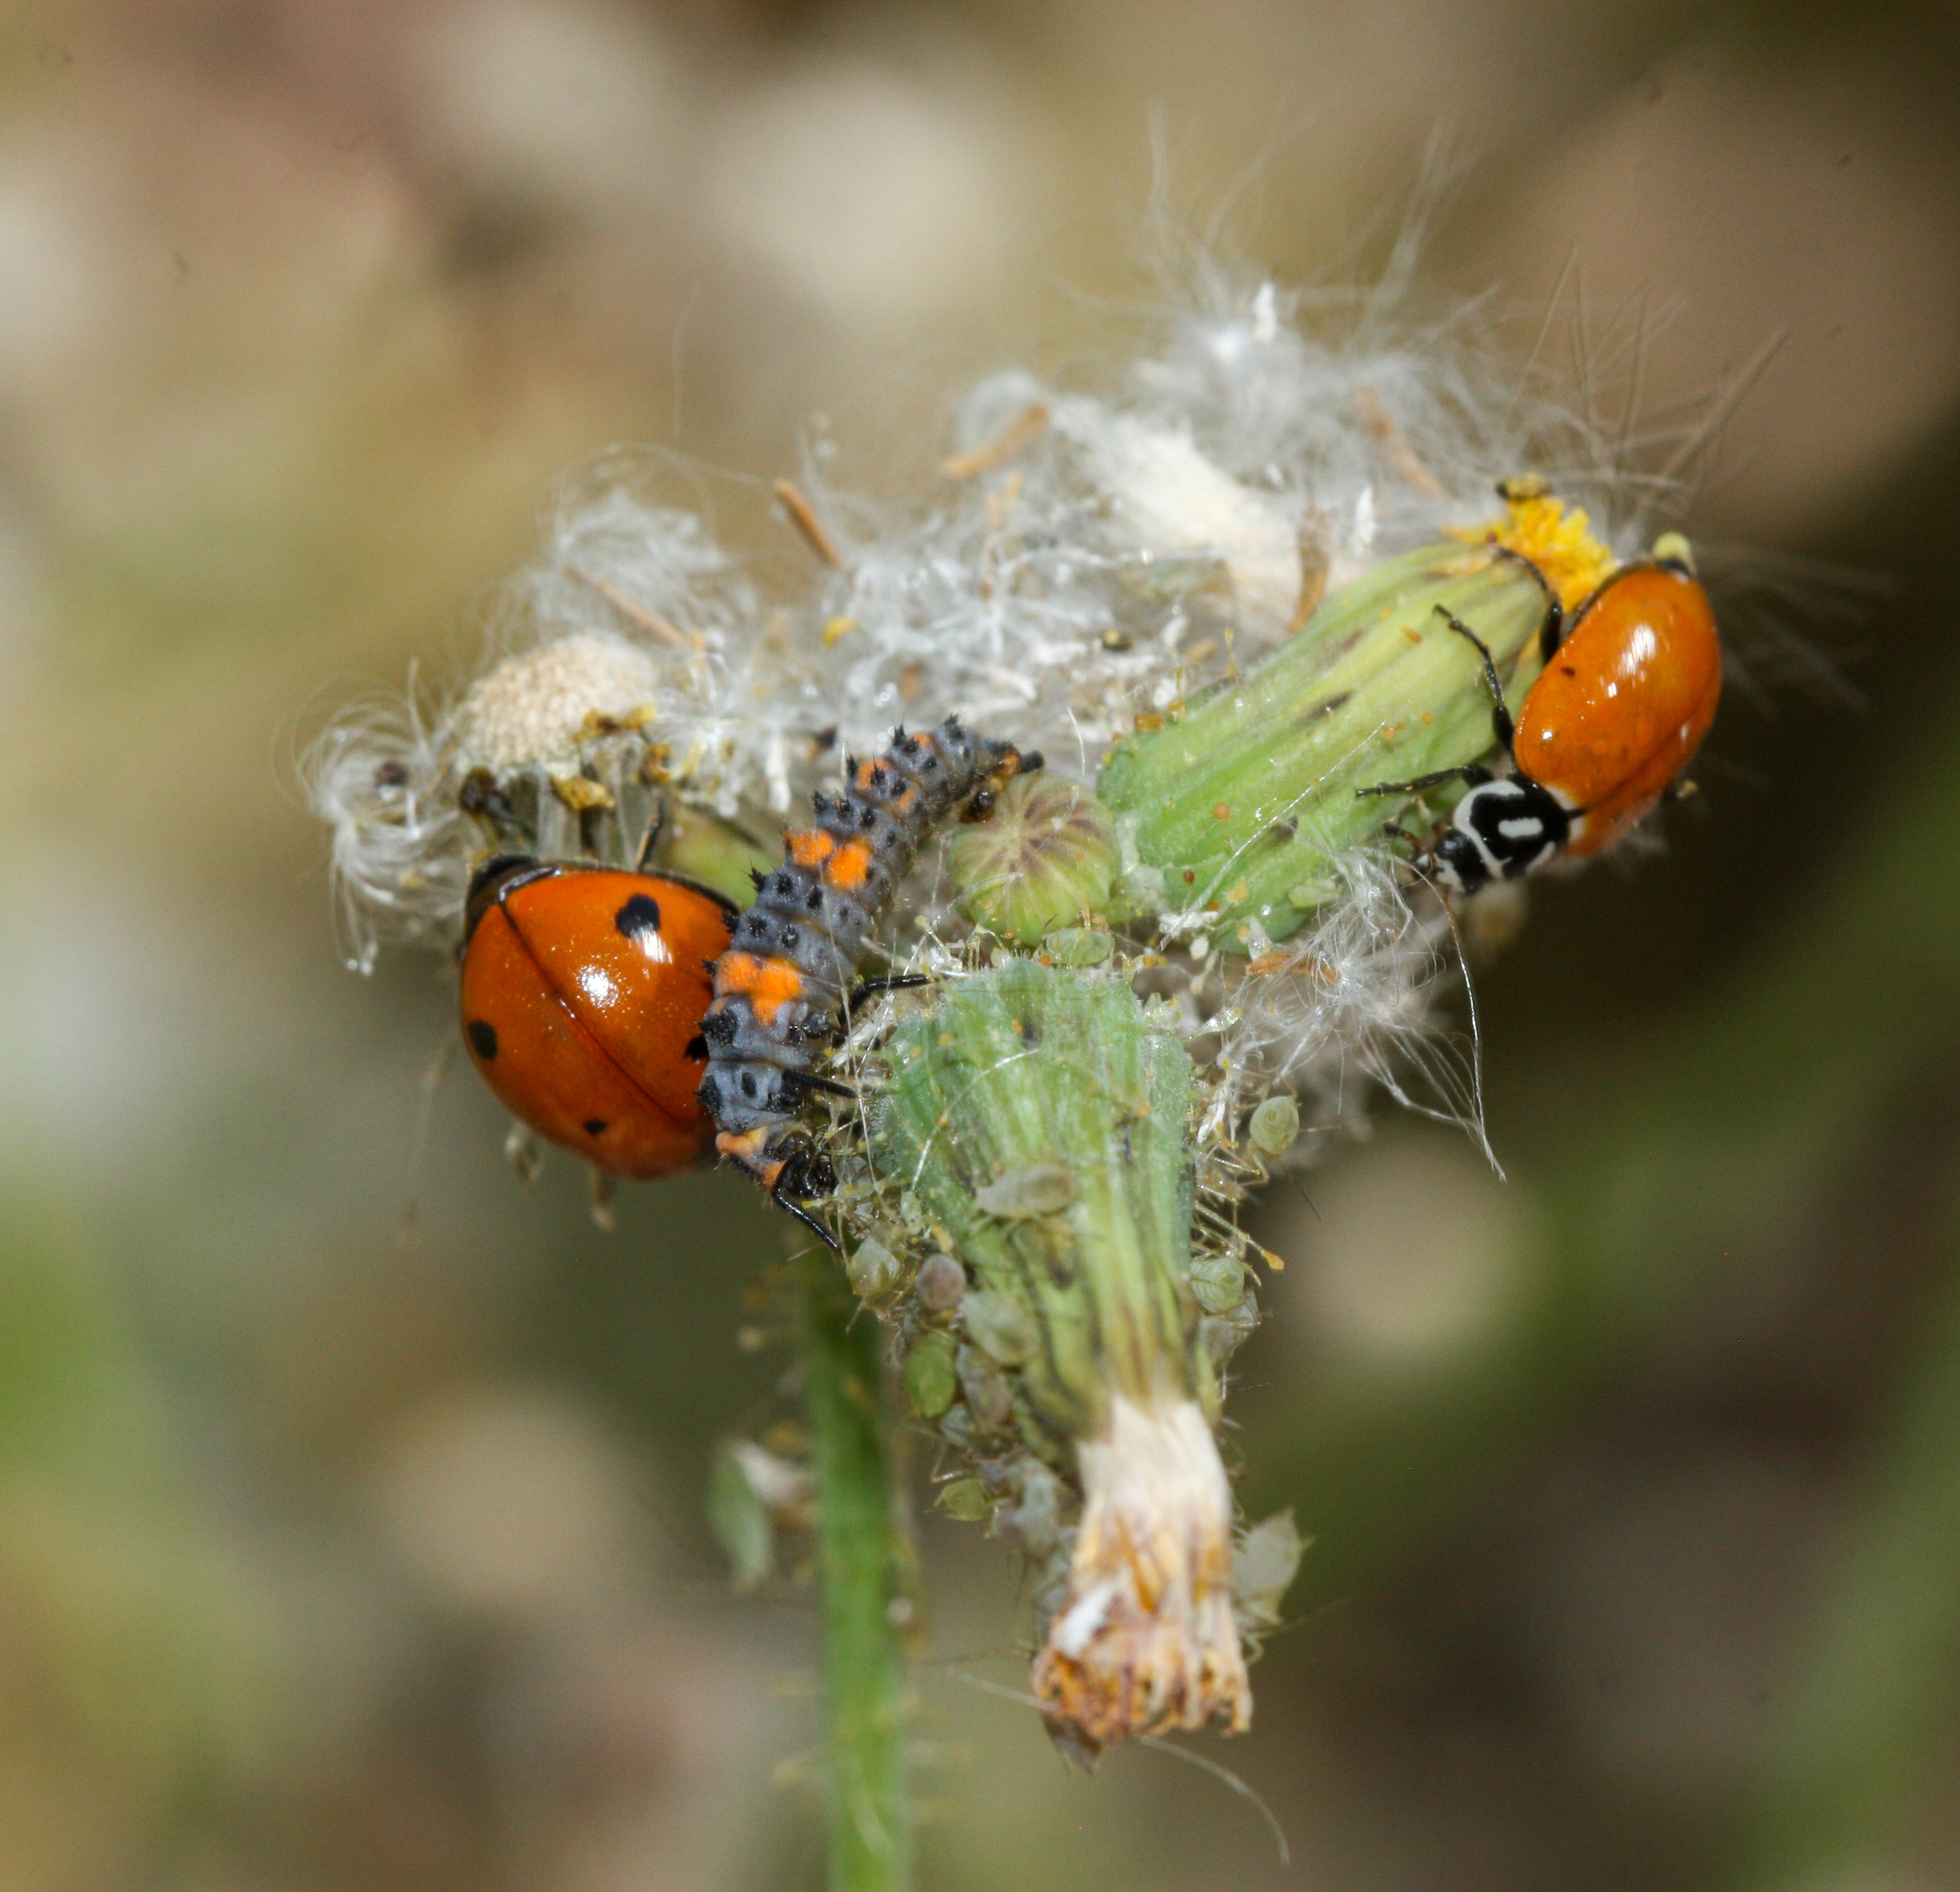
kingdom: Animalia
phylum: Arthropoda
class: Insecta
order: Coleoptera
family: Coccinellidae
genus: Hippodamia
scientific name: Hippodamia convergens
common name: Convergent lady beetle
